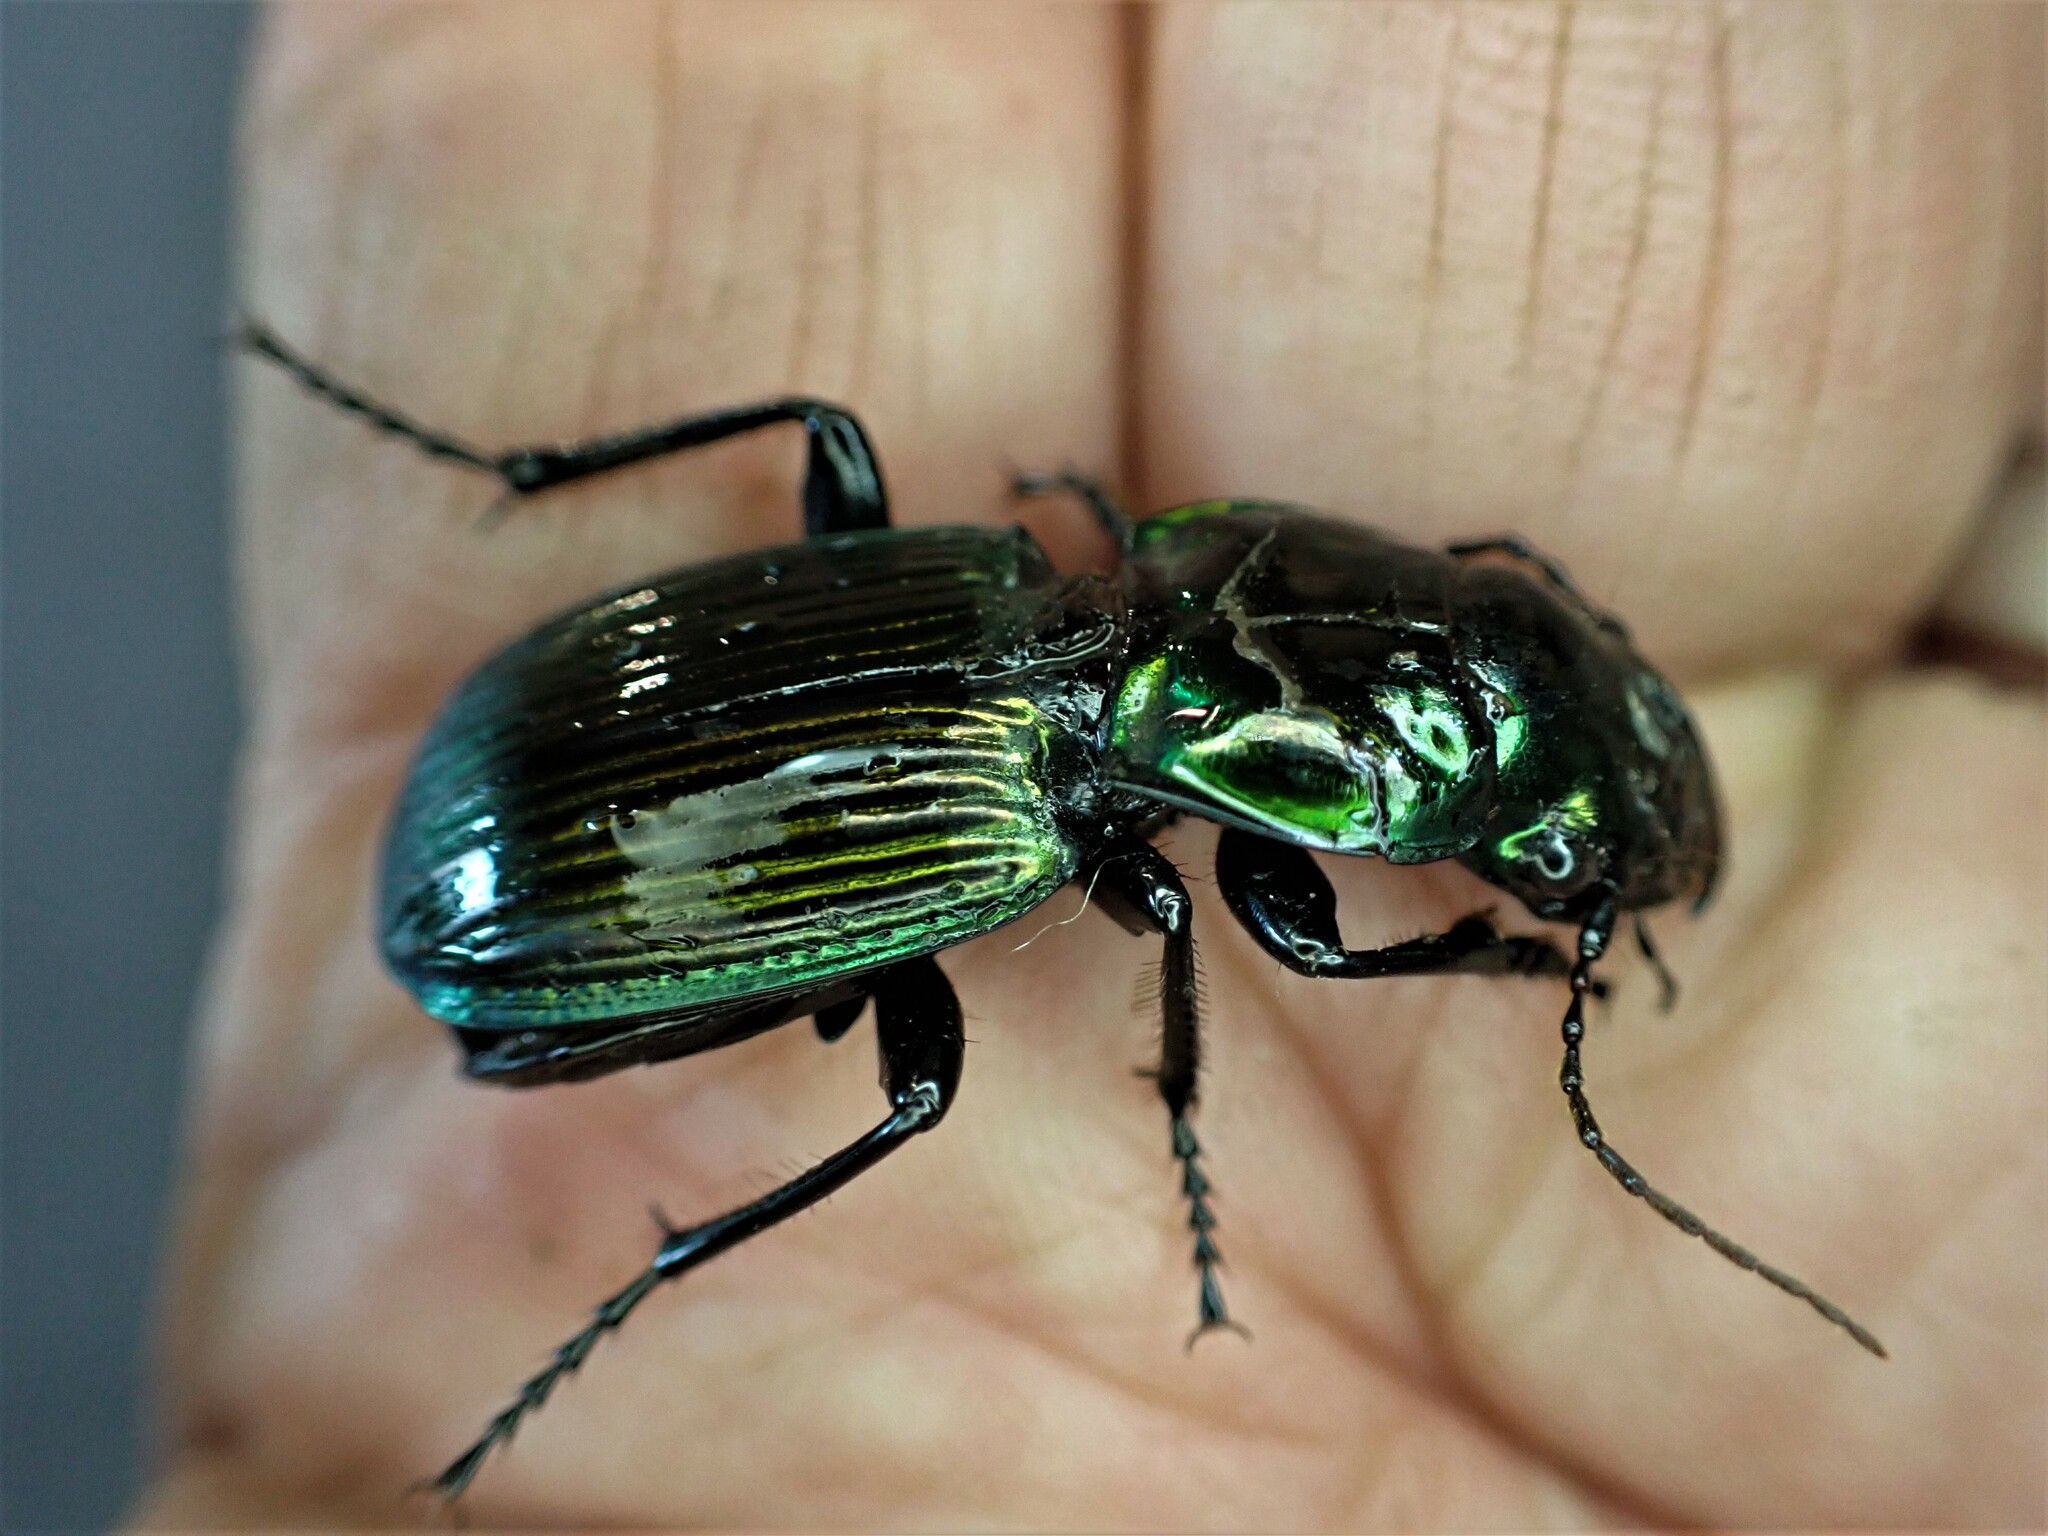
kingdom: Animalia
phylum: Arthropoda
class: Insecta
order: Coleoptera
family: Carabidae
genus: Megadromus
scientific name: Megadromus antarcticus
